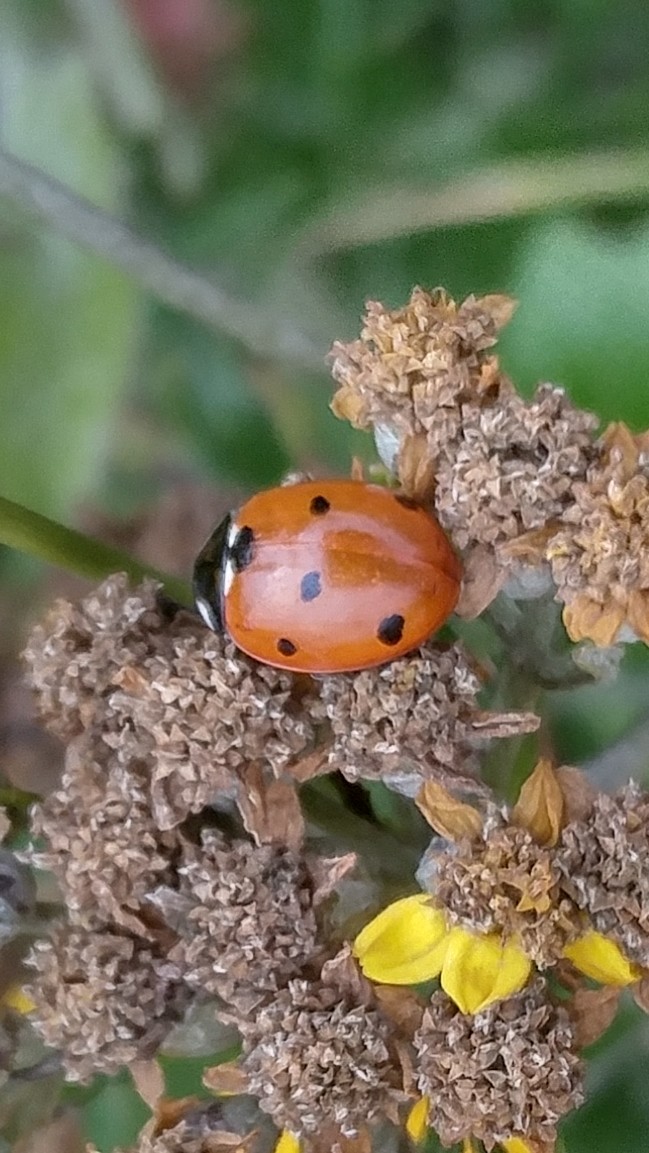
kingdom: Animalia
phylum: Arthropoda
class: Insecta
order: Coleoptera
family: Coccinellidae
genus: Coccinella
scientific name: Coccinella septempunctata
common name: Sevenspotted lady beetle
